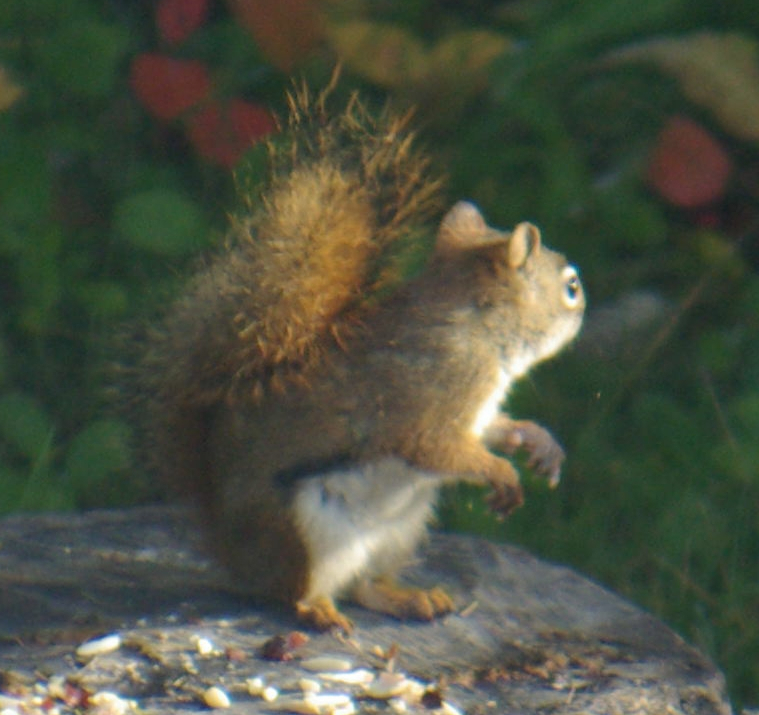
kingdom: Animalia
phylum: Chordata
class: Mammalia
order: Rodentia
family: Sciuridae
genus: Tamiasciurus
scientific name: Tamiasciurus hudsonicus
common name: Red squirrel
